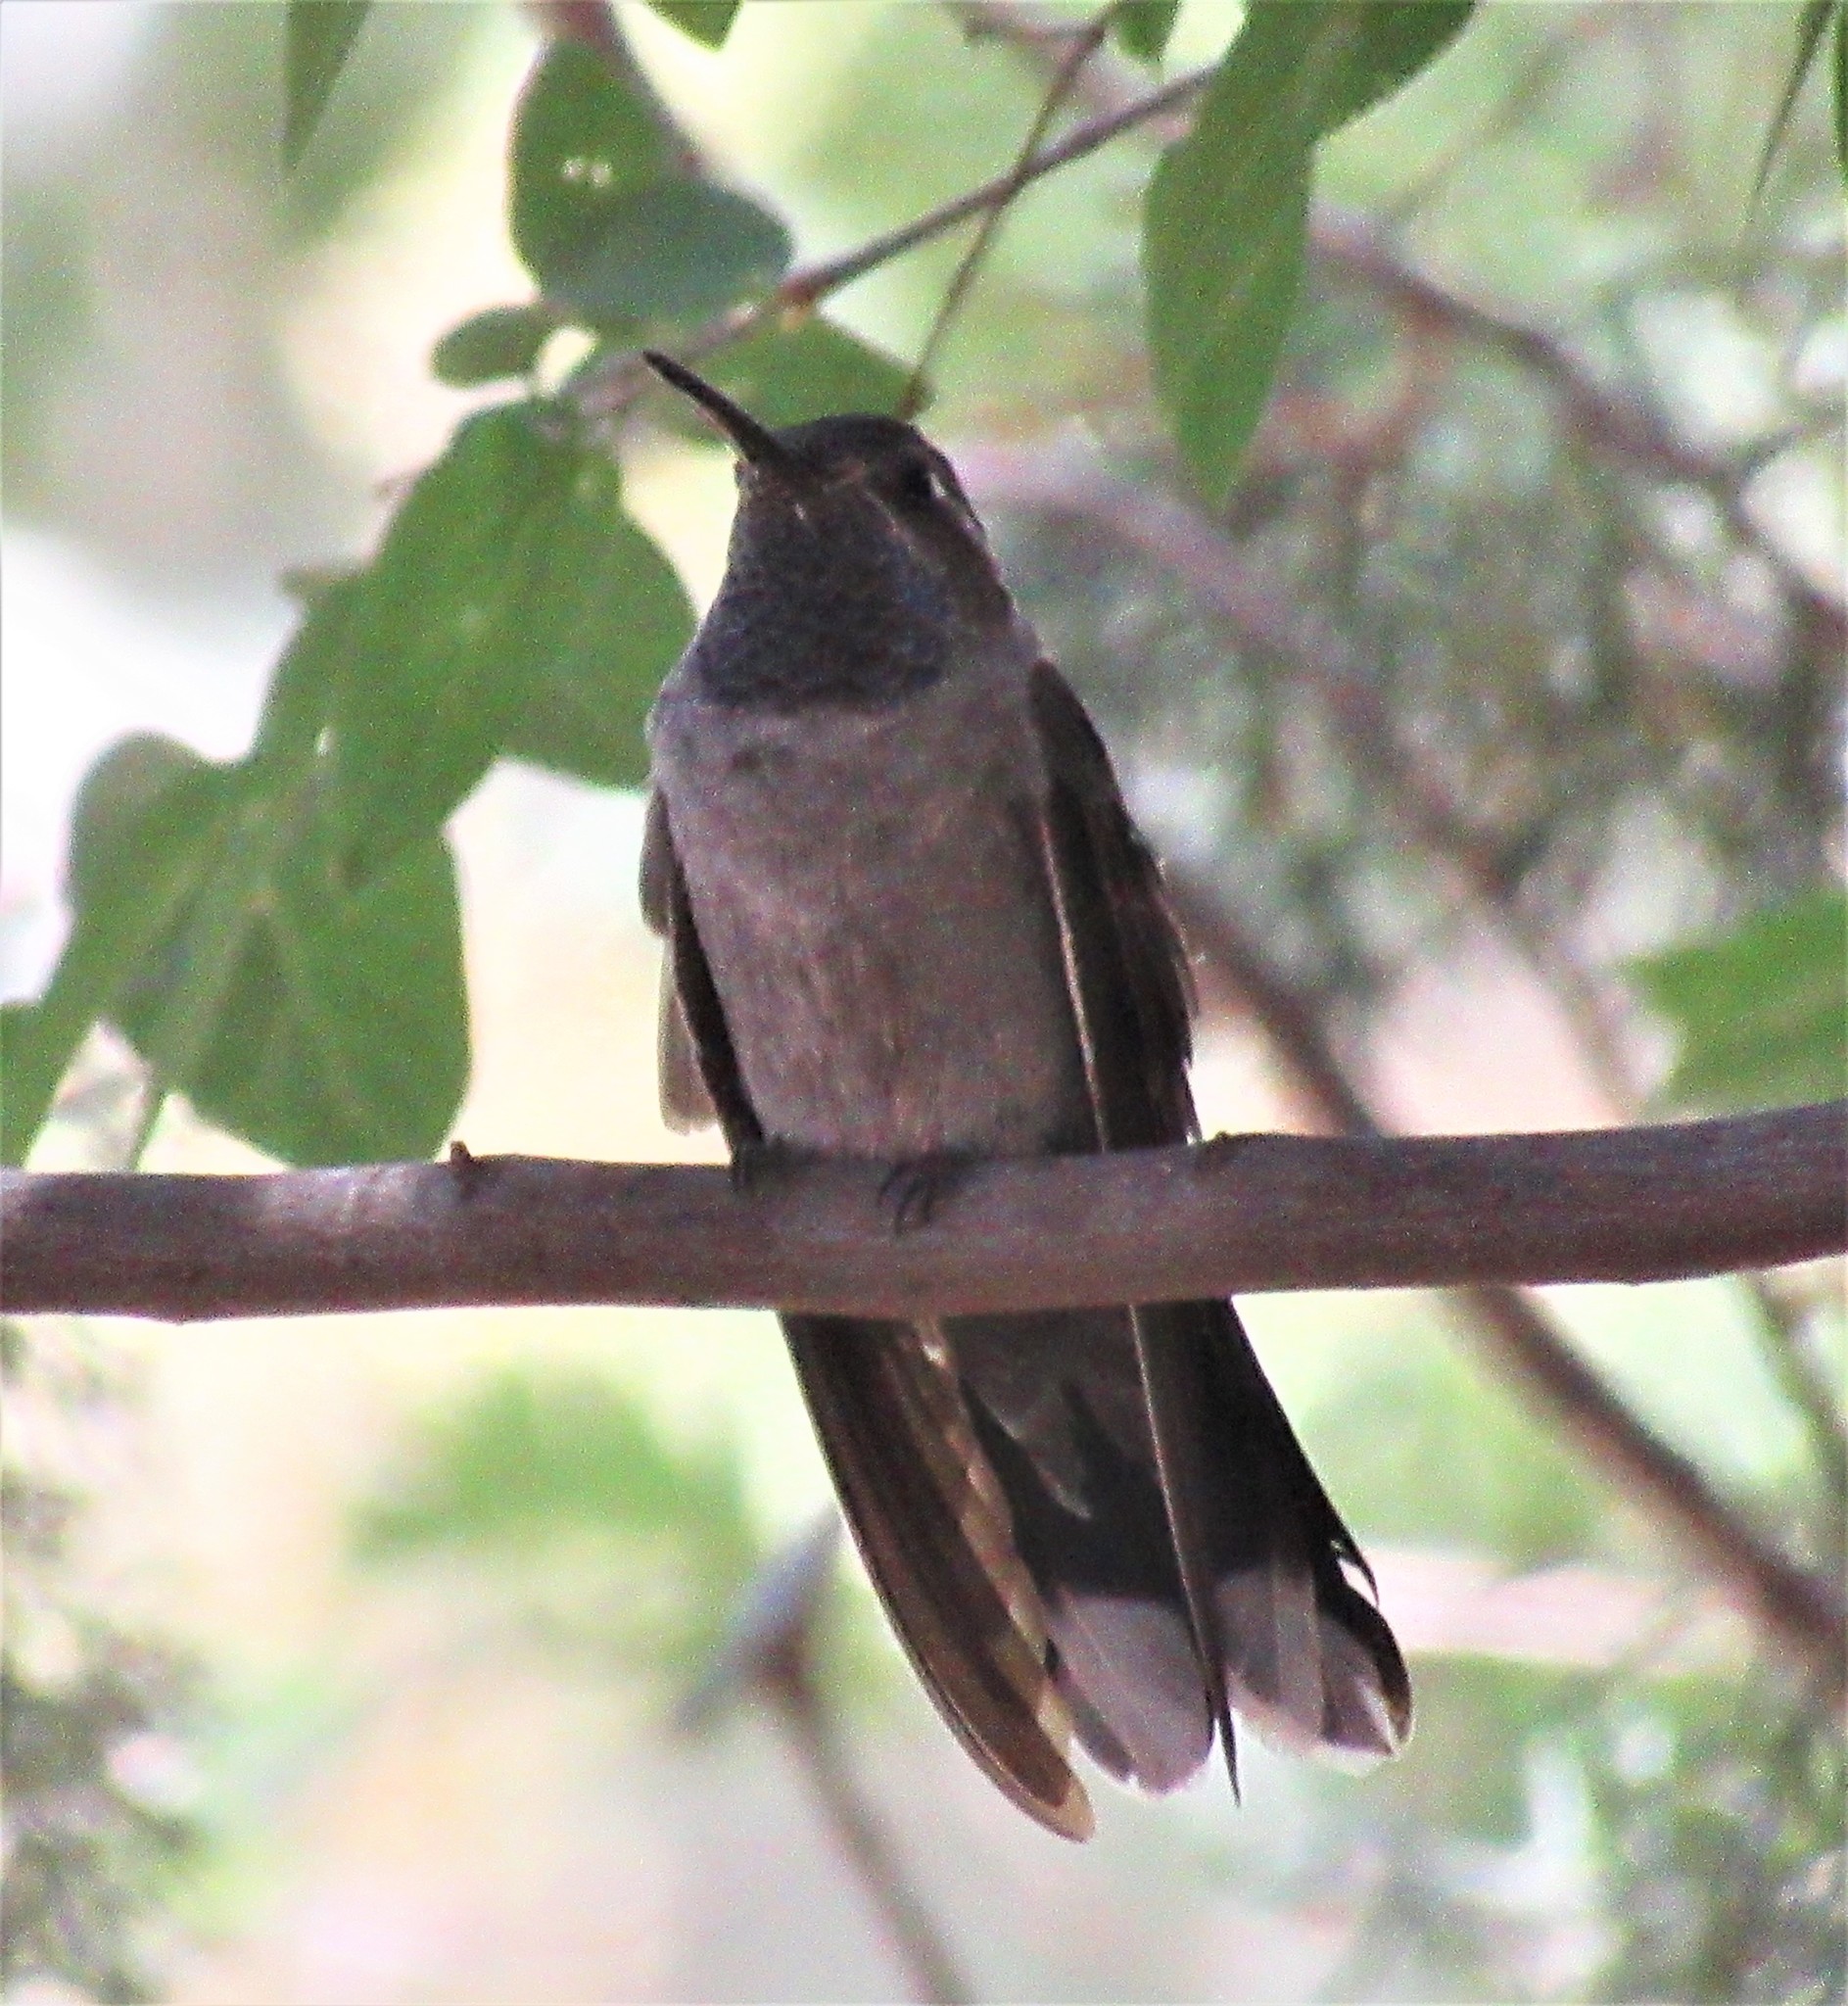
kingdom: Animalia
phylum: Chordata
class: Aves
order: Apodiformes
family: Trochilidae
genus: Lampornis
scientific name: Lampornis clemenciae
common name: Blue-throated mountaingem
